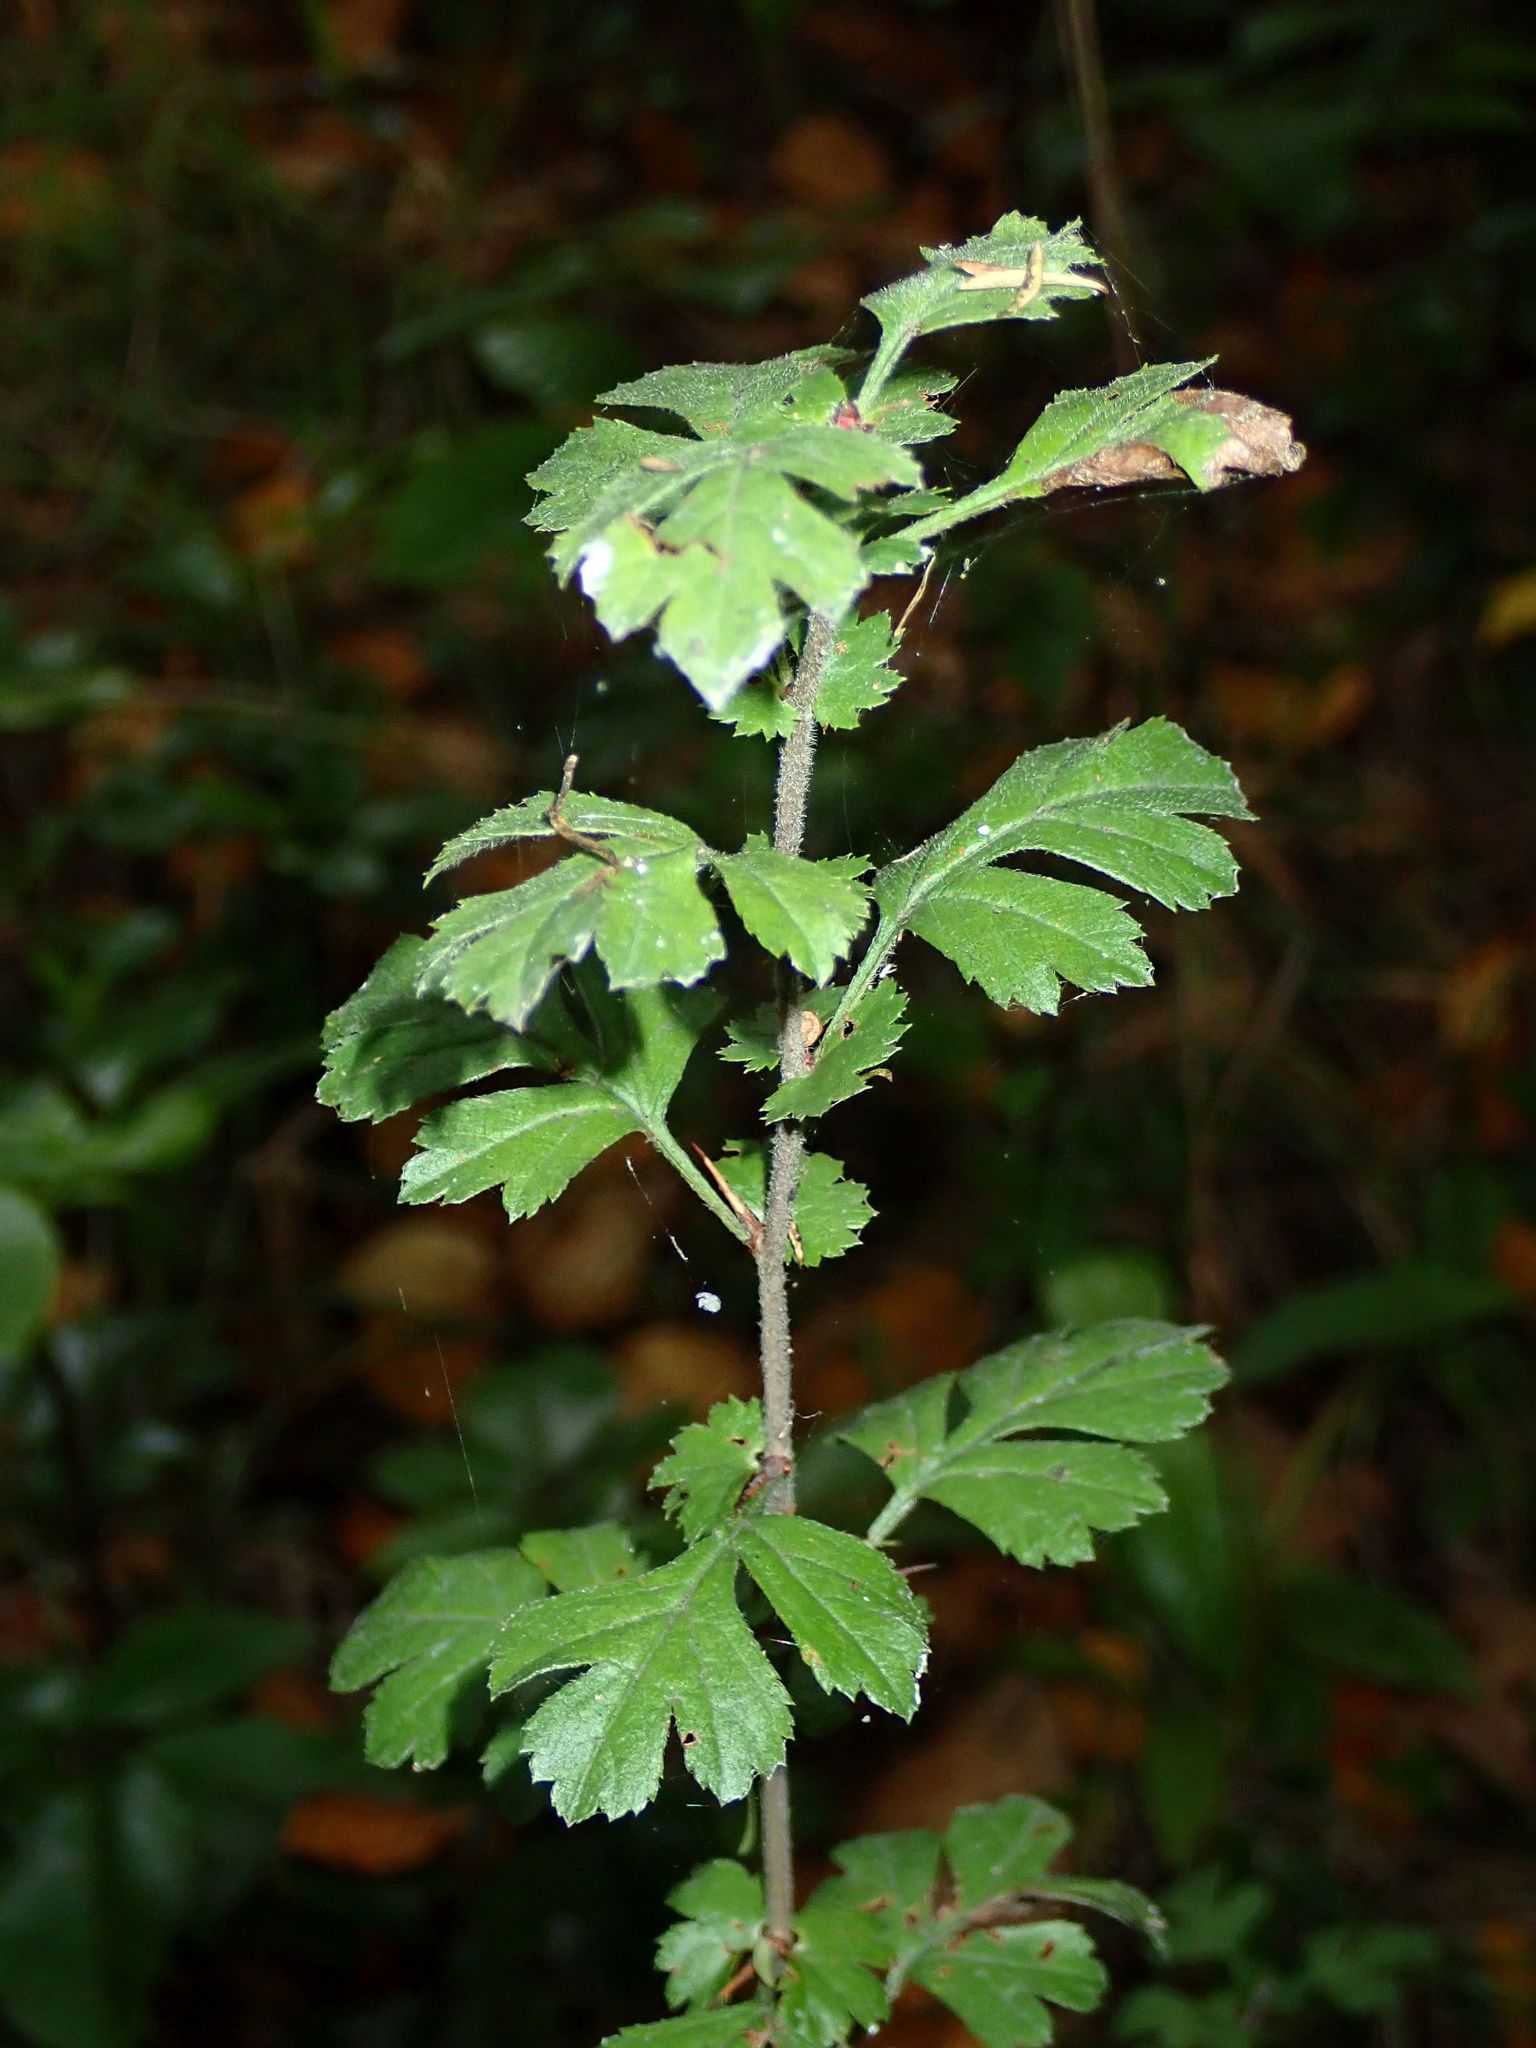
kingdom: Plantae
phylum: Tracheophyta
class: Magnoliopsida
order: Rosales
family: Rosaceae
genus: Crataegus
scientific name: Crataegus monogyna
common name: Hawthorn
